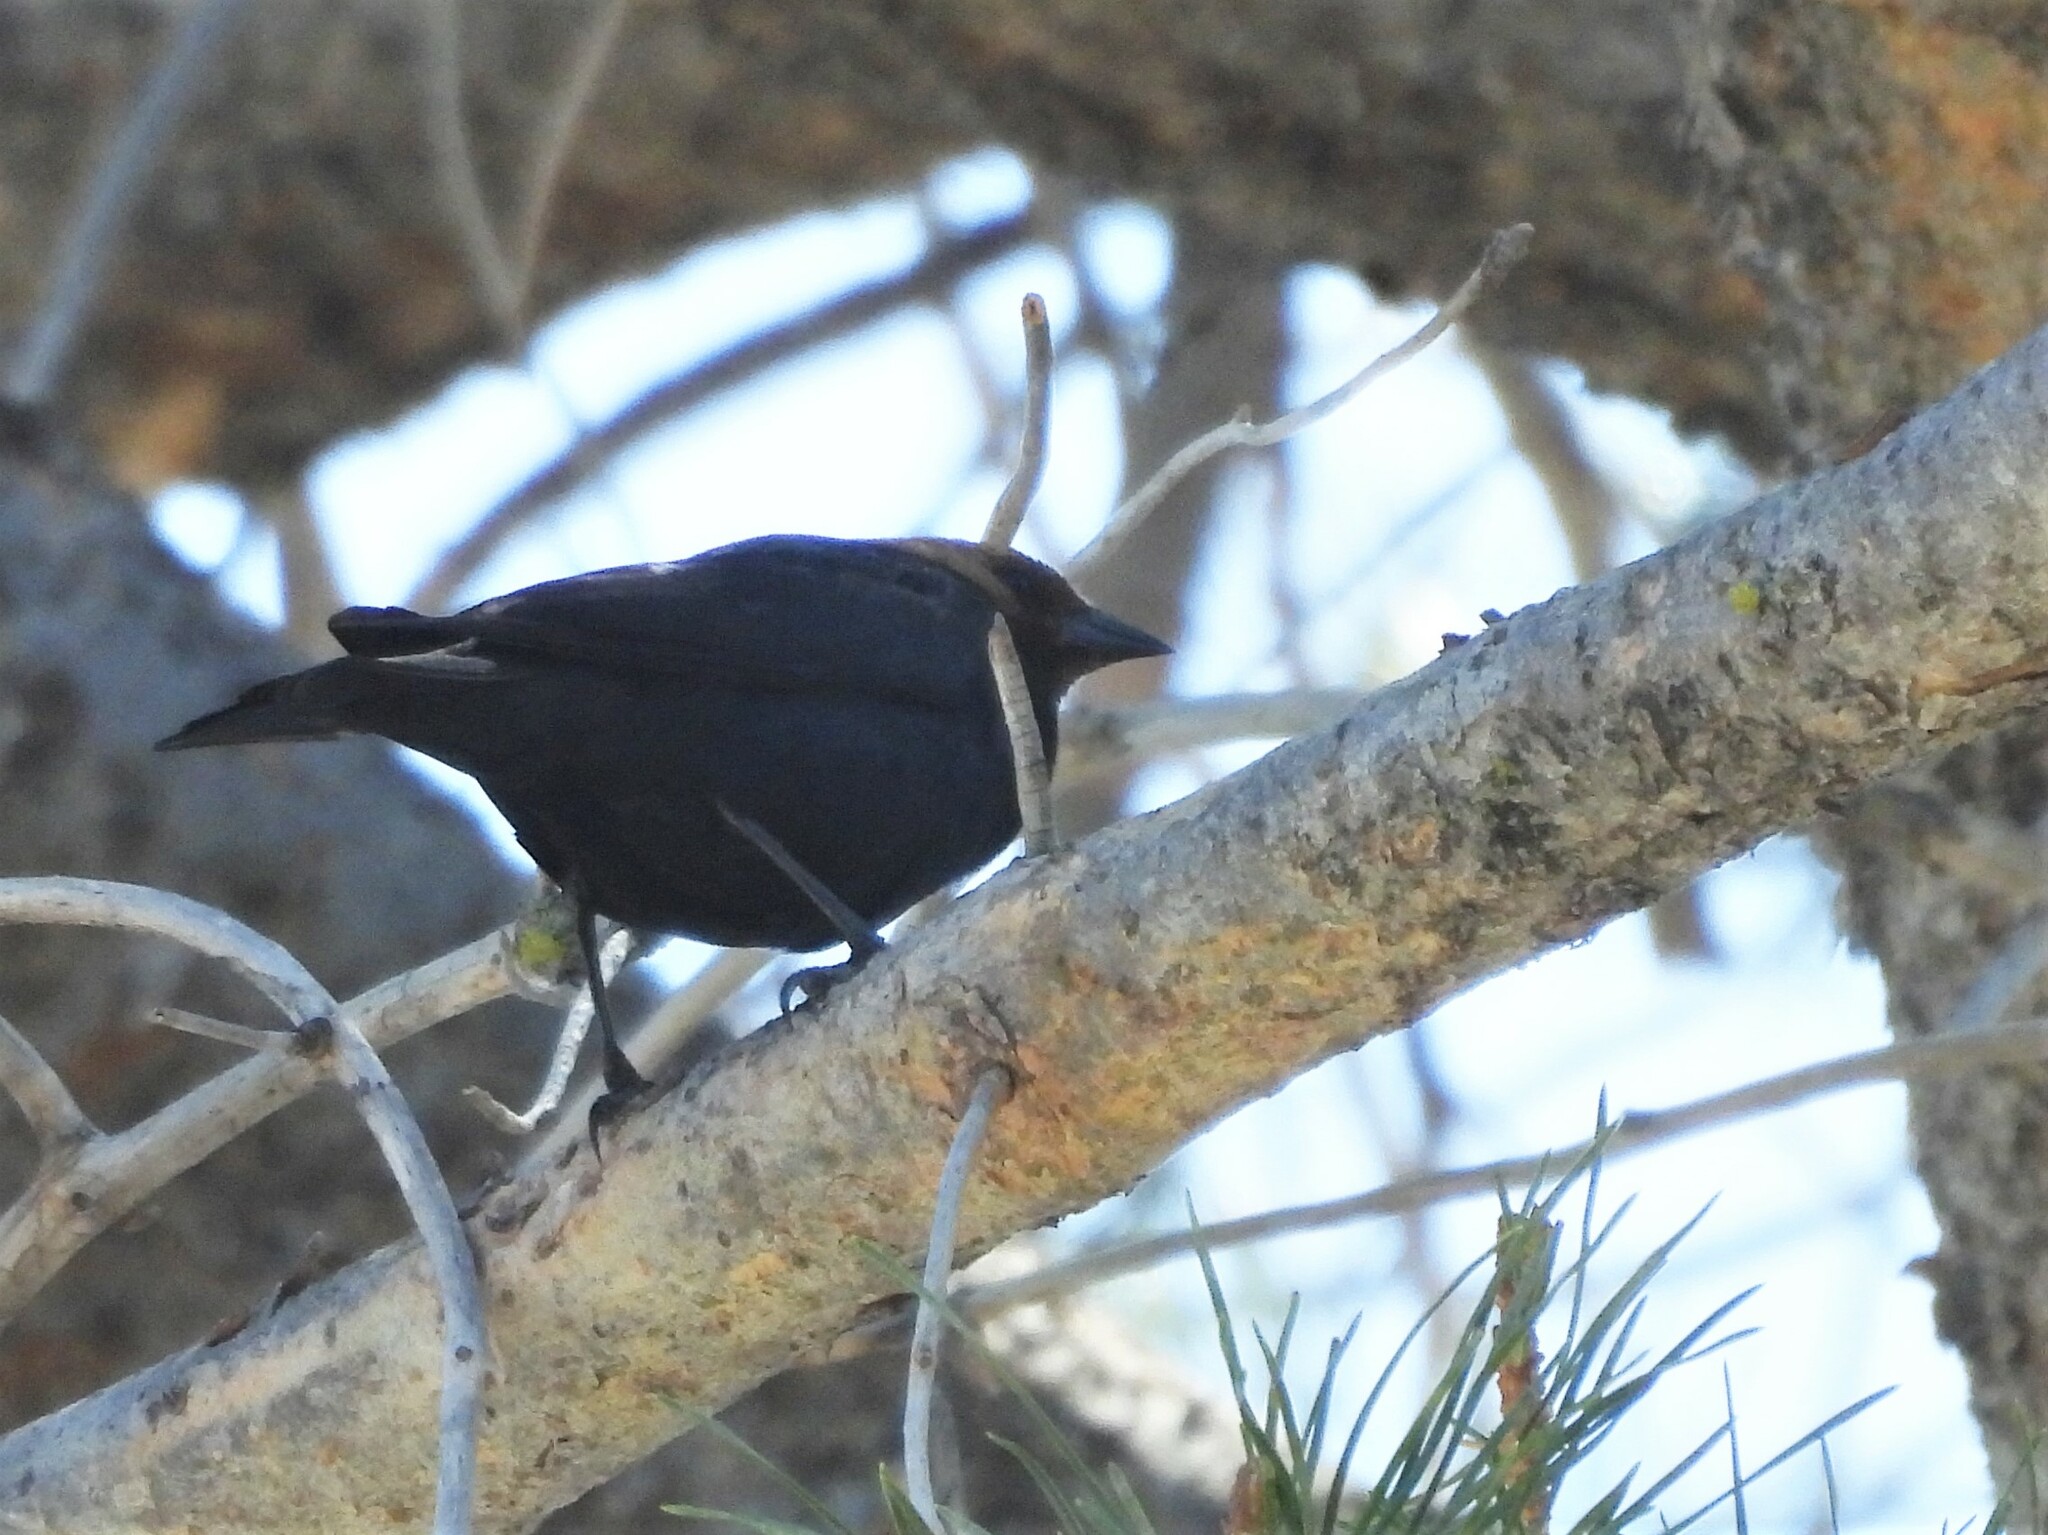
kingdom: Animalia
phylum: Chordata
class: Aves
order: Passeriformes
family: Icteridae
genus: Molothrus
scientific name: Molothrus ater
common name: Brown-headed cowbird
